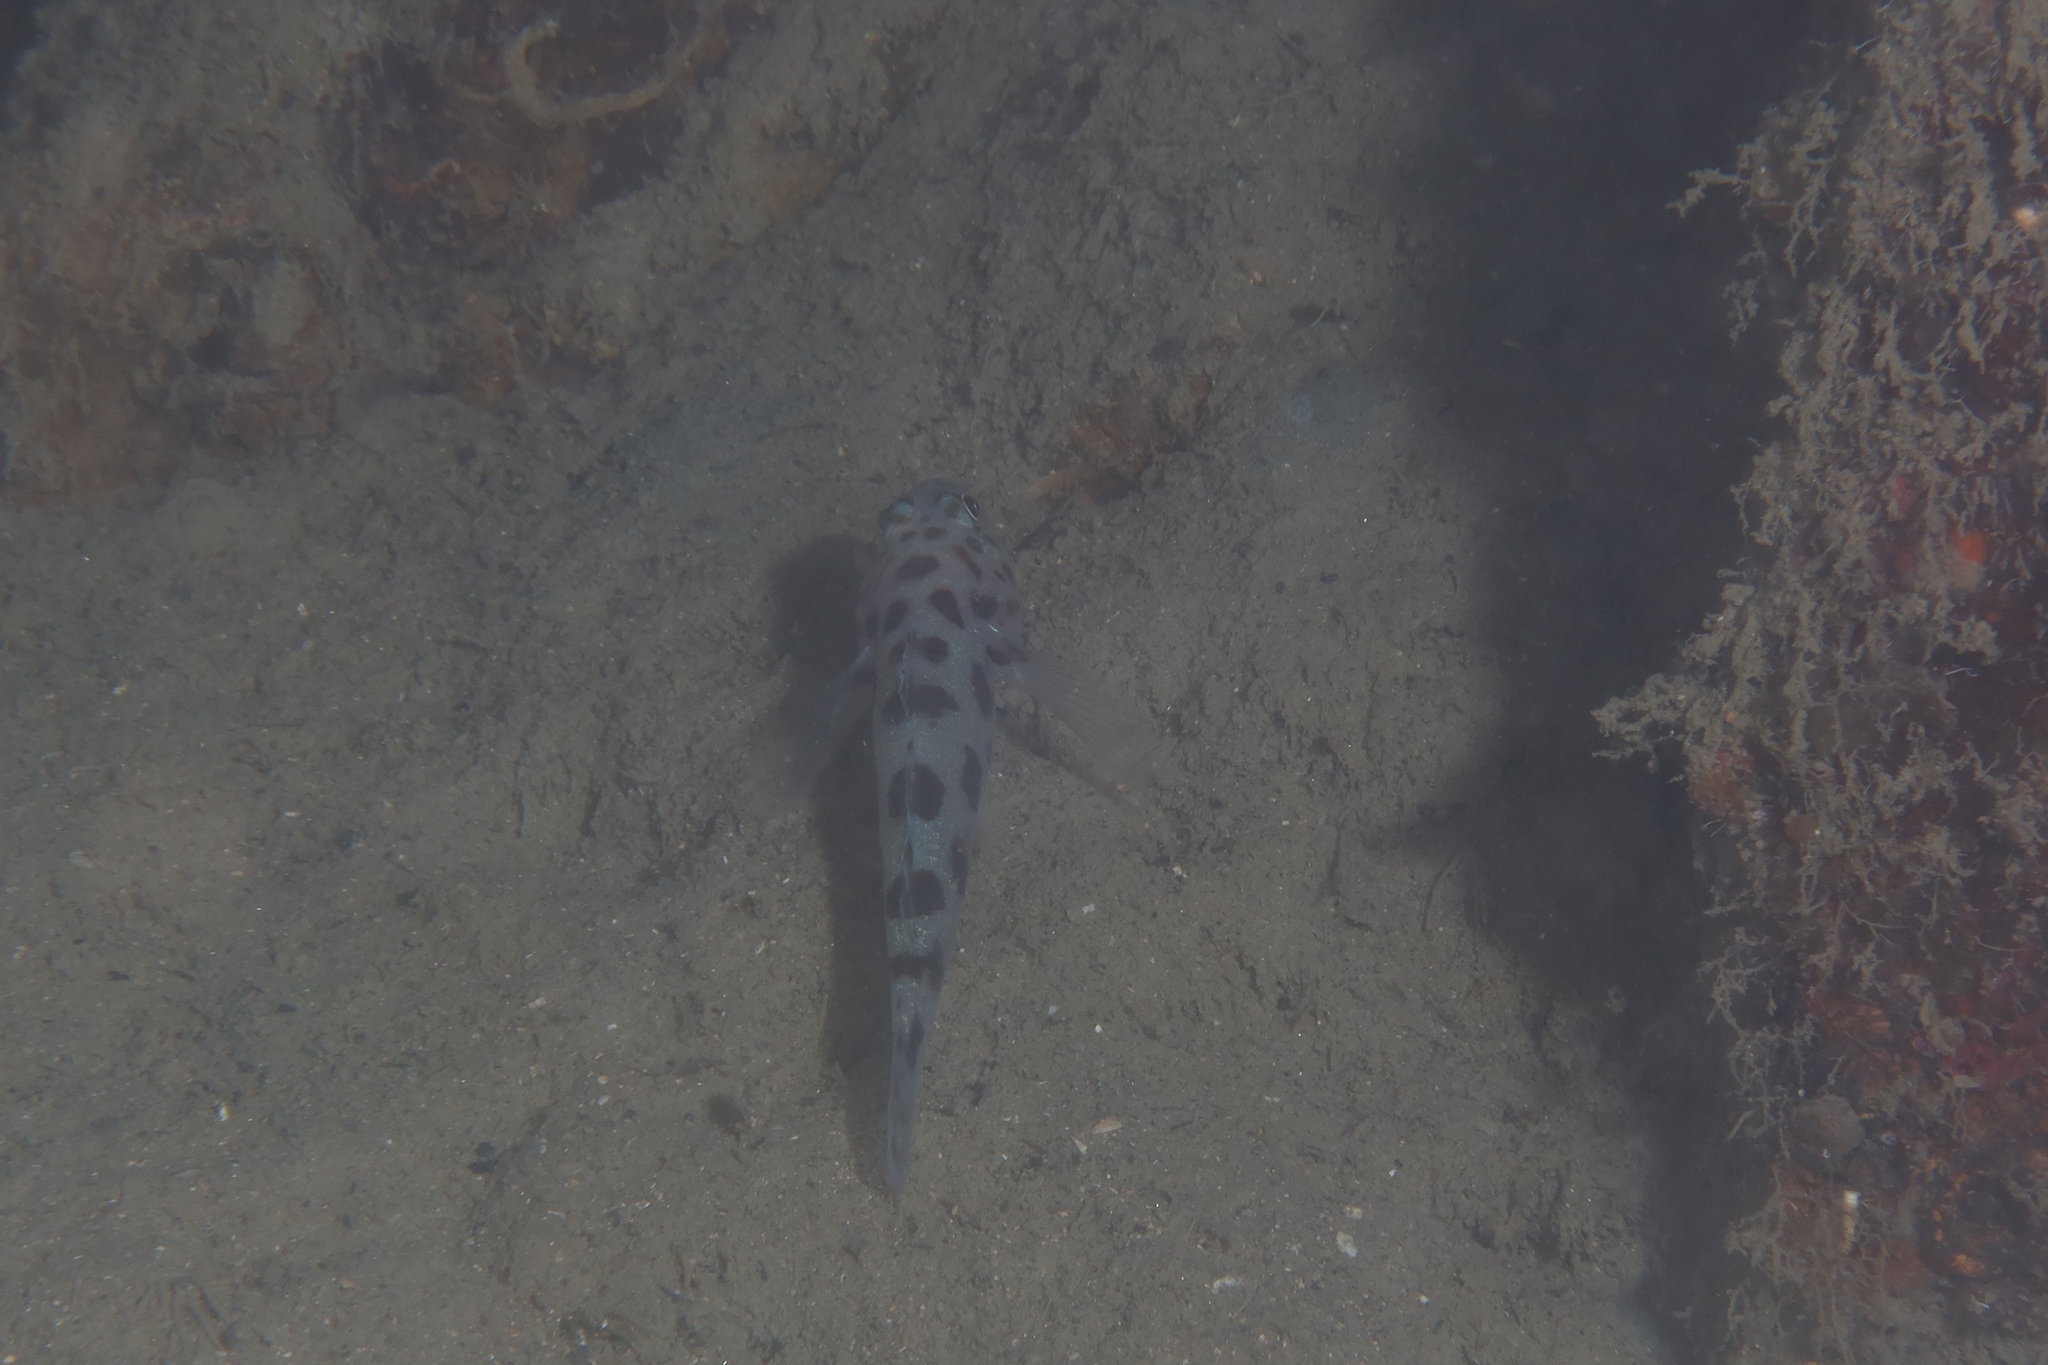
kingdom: Animalia
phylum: Chordata
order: Perciformes
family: Gobiidae
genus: Thorogobius
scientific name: Thorogobius ephippiatus
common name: Leopard-spotted goby
